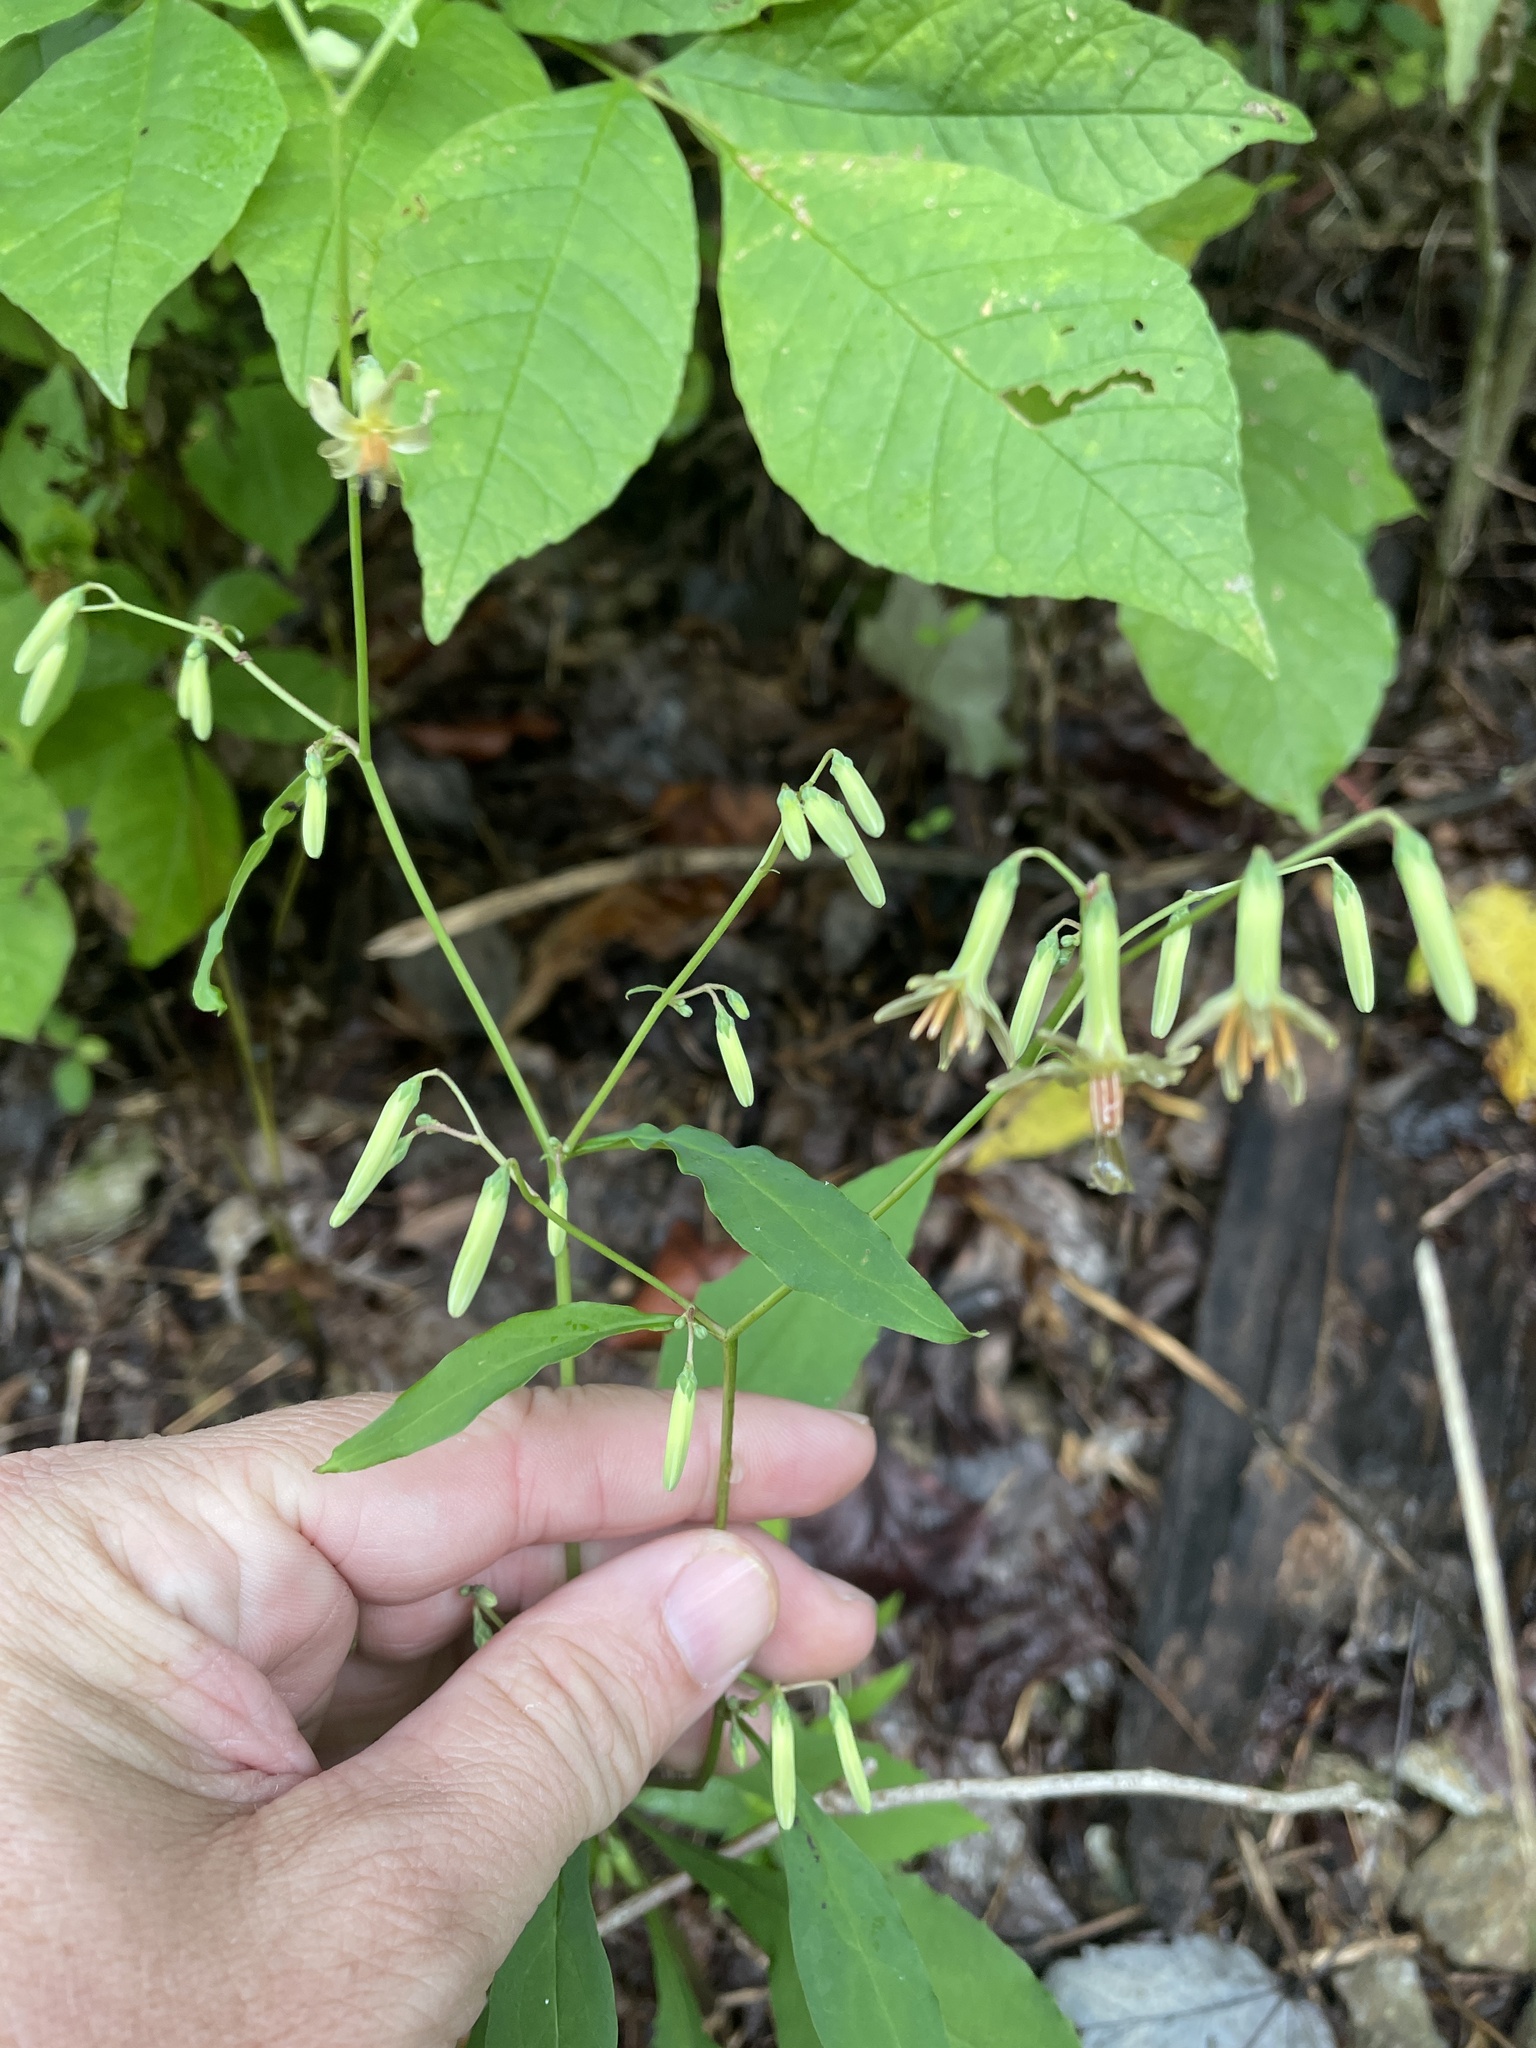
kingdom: Plantae
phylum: Tracheophyta
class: Magnoliopsida
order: Asterales
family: Asteraceae
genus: Nabalus
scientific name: Nabalus altissima
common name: Tall rattlesnakeroot
